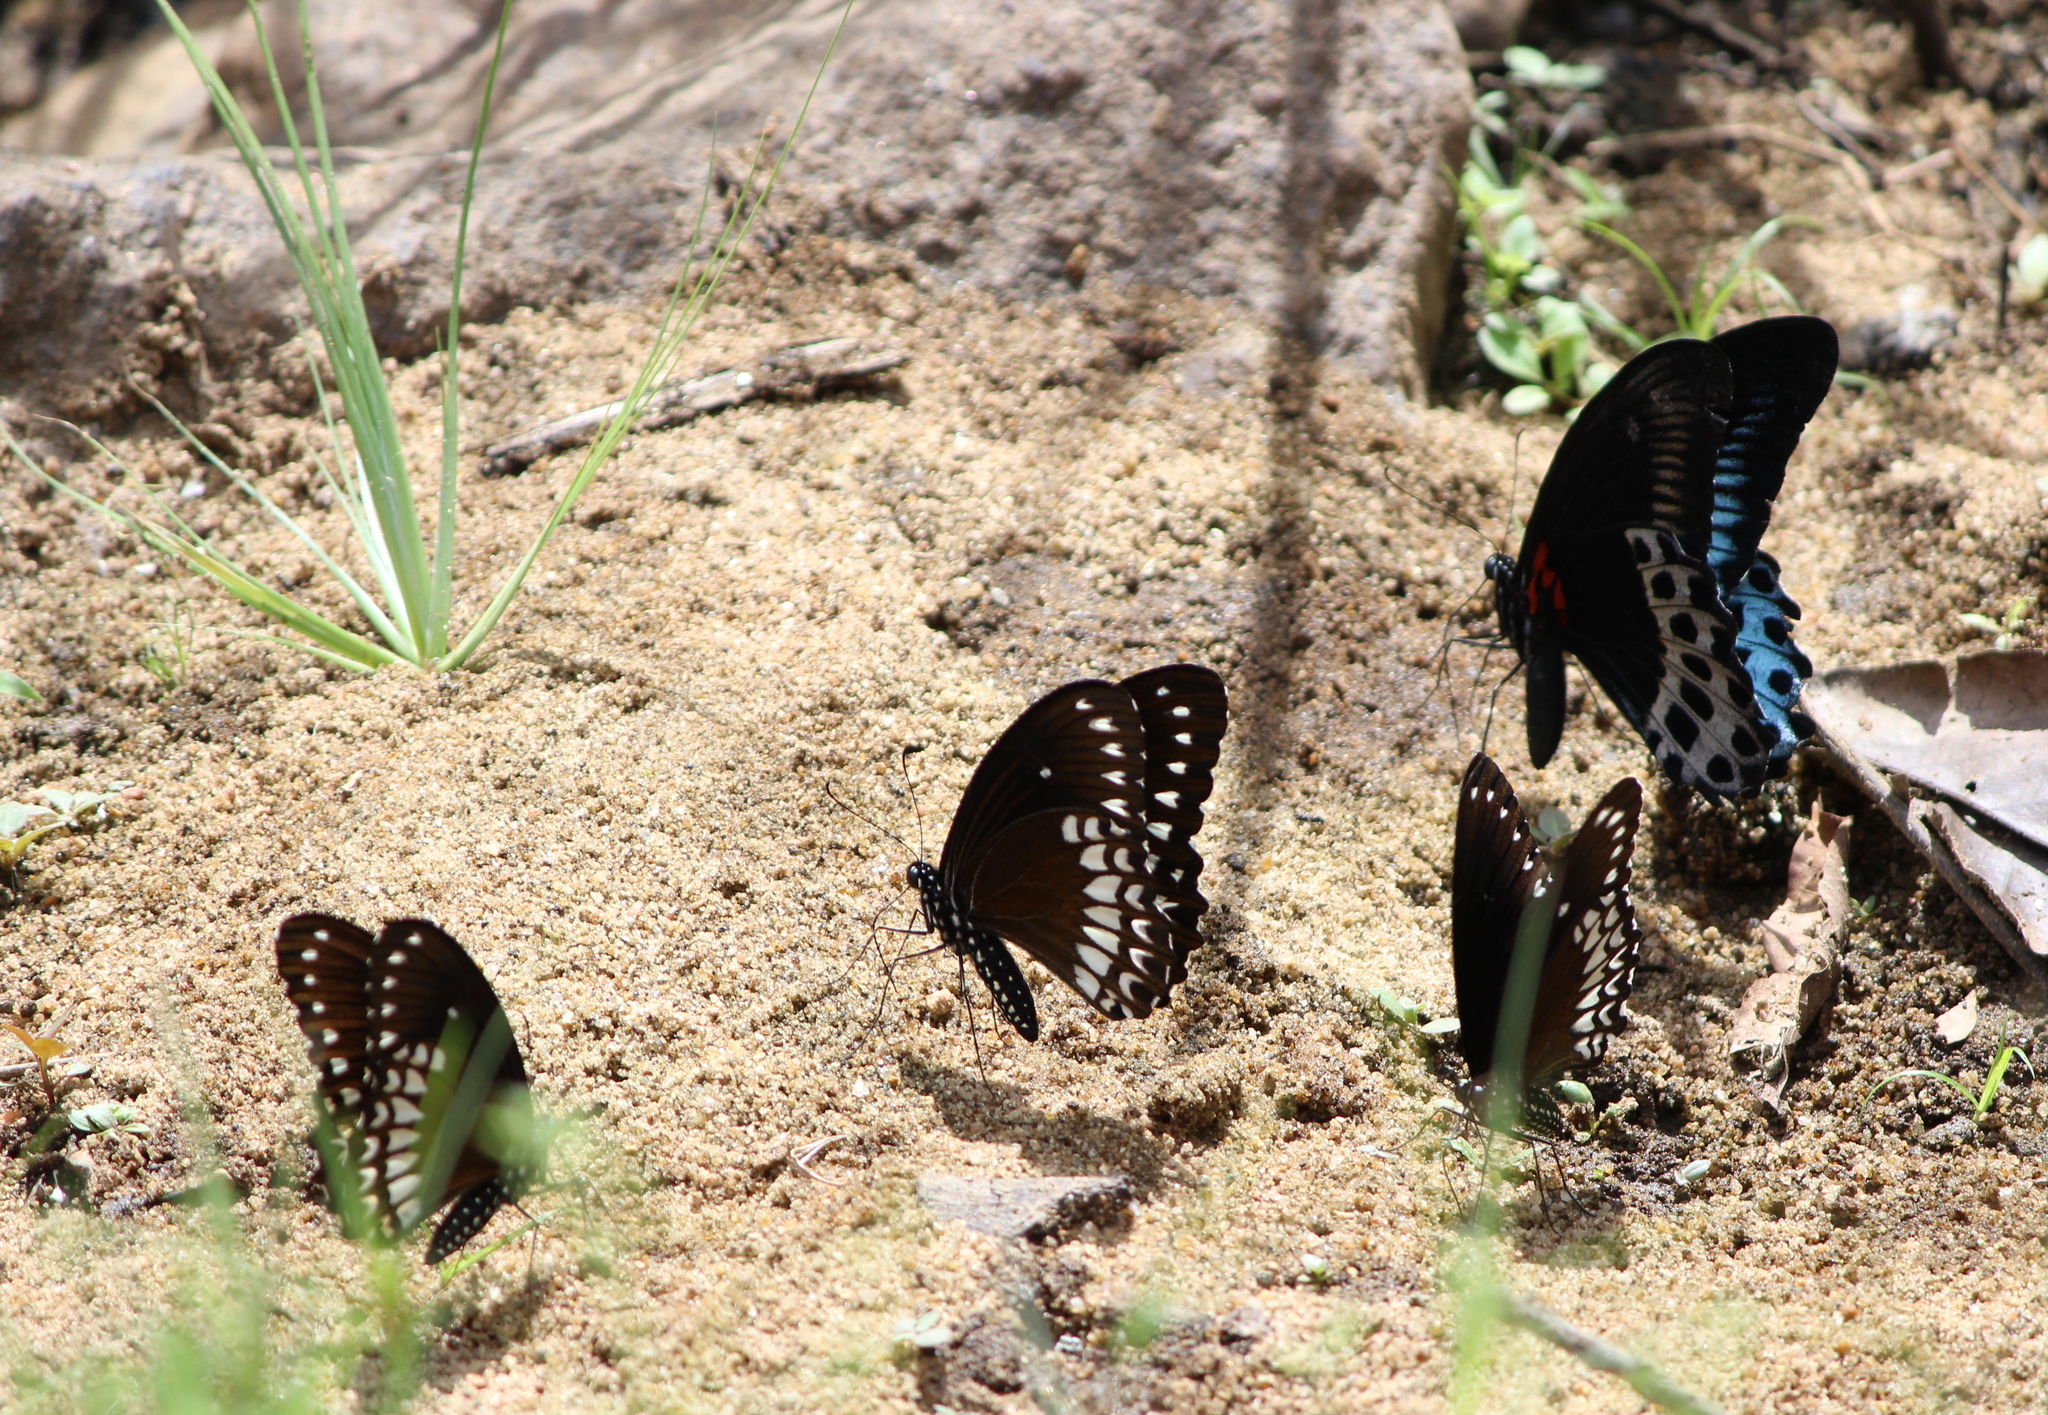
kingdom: Animalia
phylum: Arthropoda
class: Insecta
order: Lepidoptera
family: Papilionidae
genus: Papilio
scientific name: Papilio memnon
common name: Great mormon
